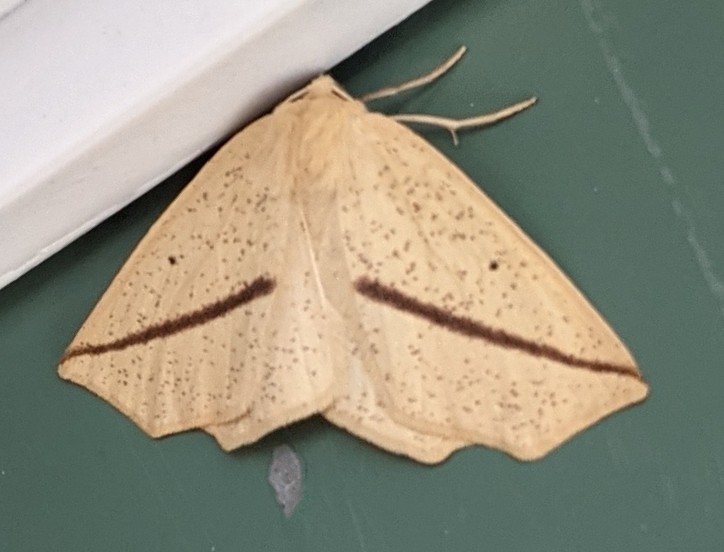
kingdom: Animalia
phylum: Arthropoda
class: Insecta
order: Lepidoptera
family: Geometridae
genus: Tetracis
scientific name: Tetracis crocallata
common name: Yellow slant-line
